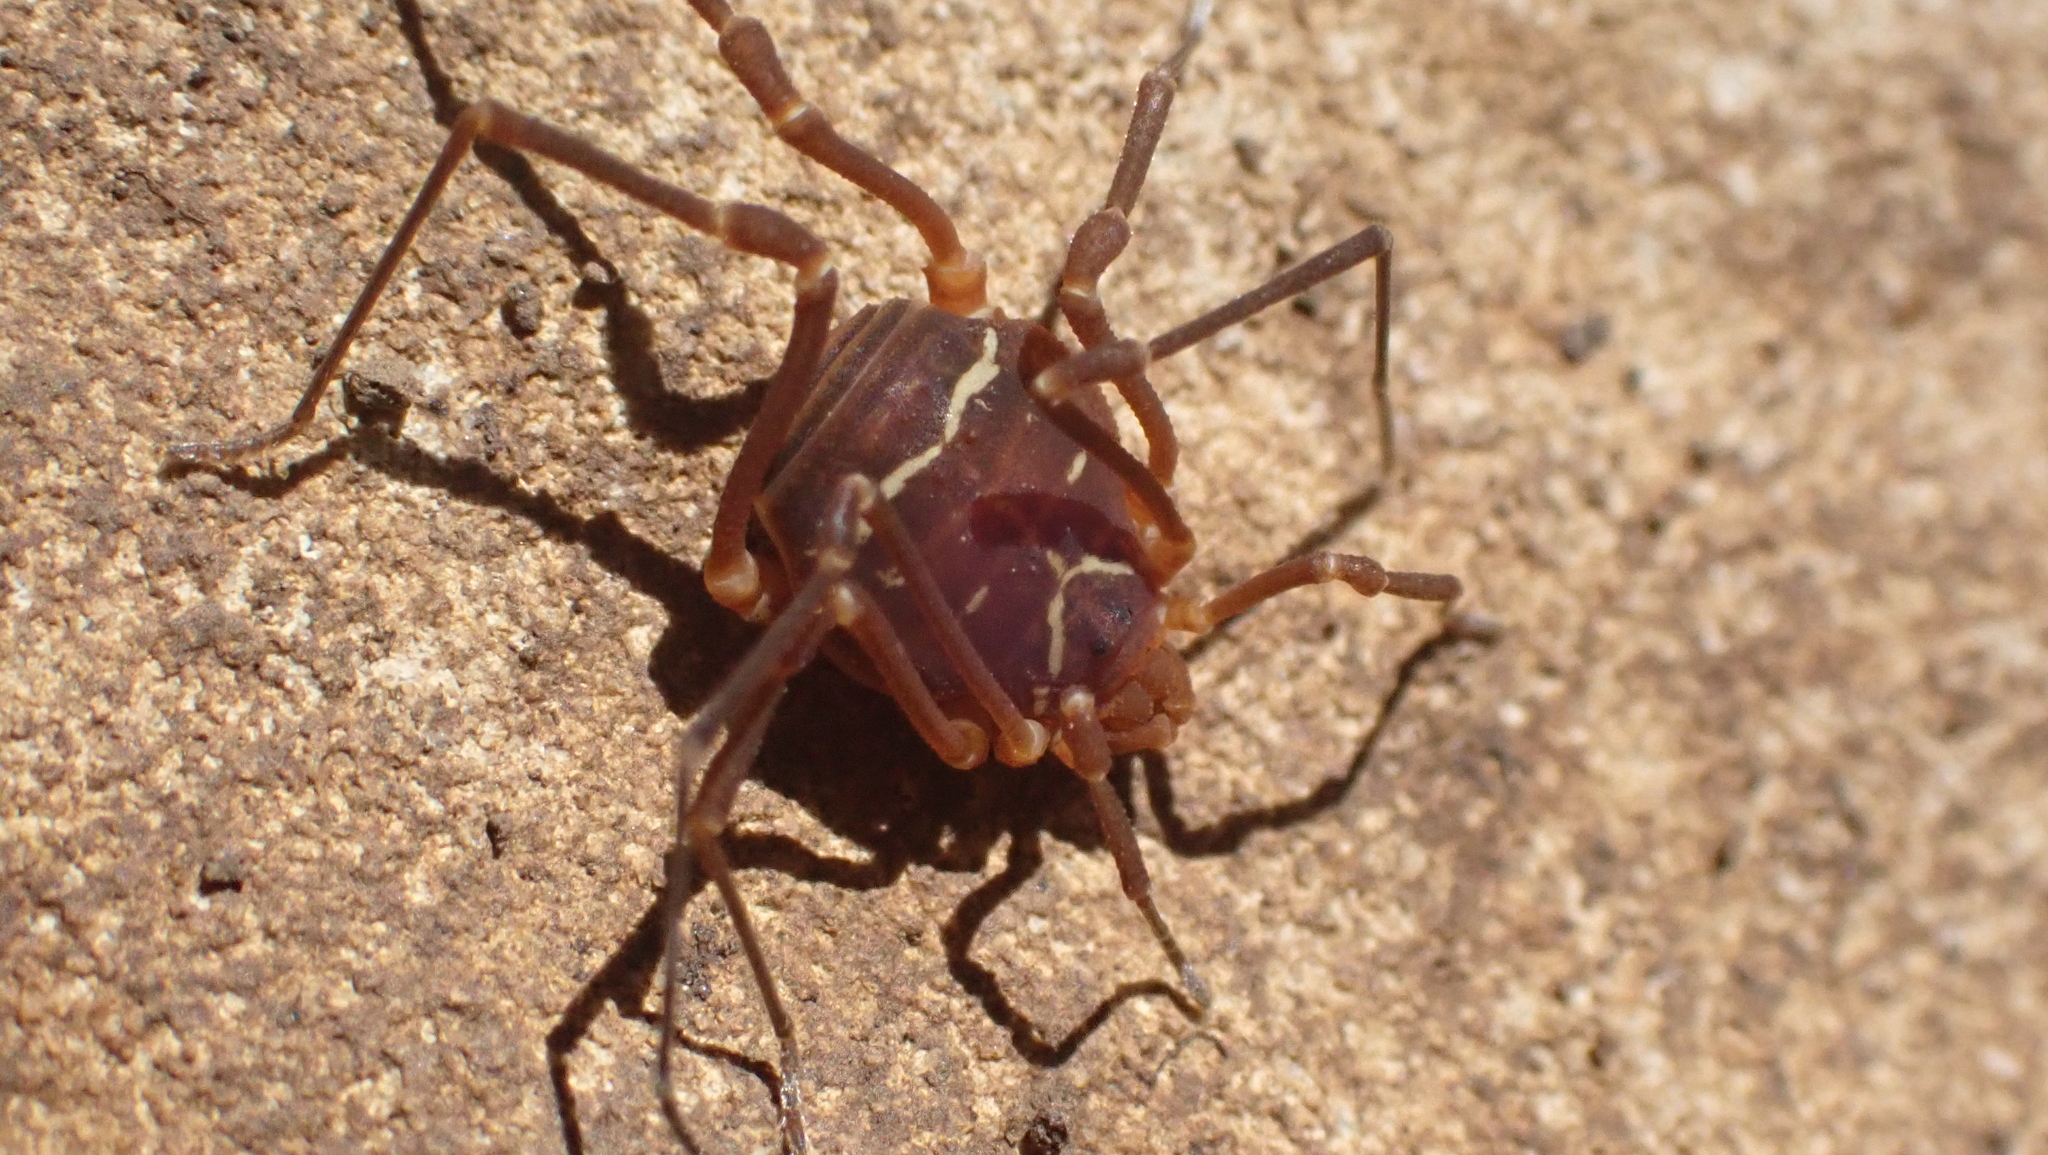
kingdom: Animalia
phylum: Arthropoda
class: Arachnida
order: Opiliones
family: Cosmetidae
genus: Libitioides
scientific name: Libitioides sayi
